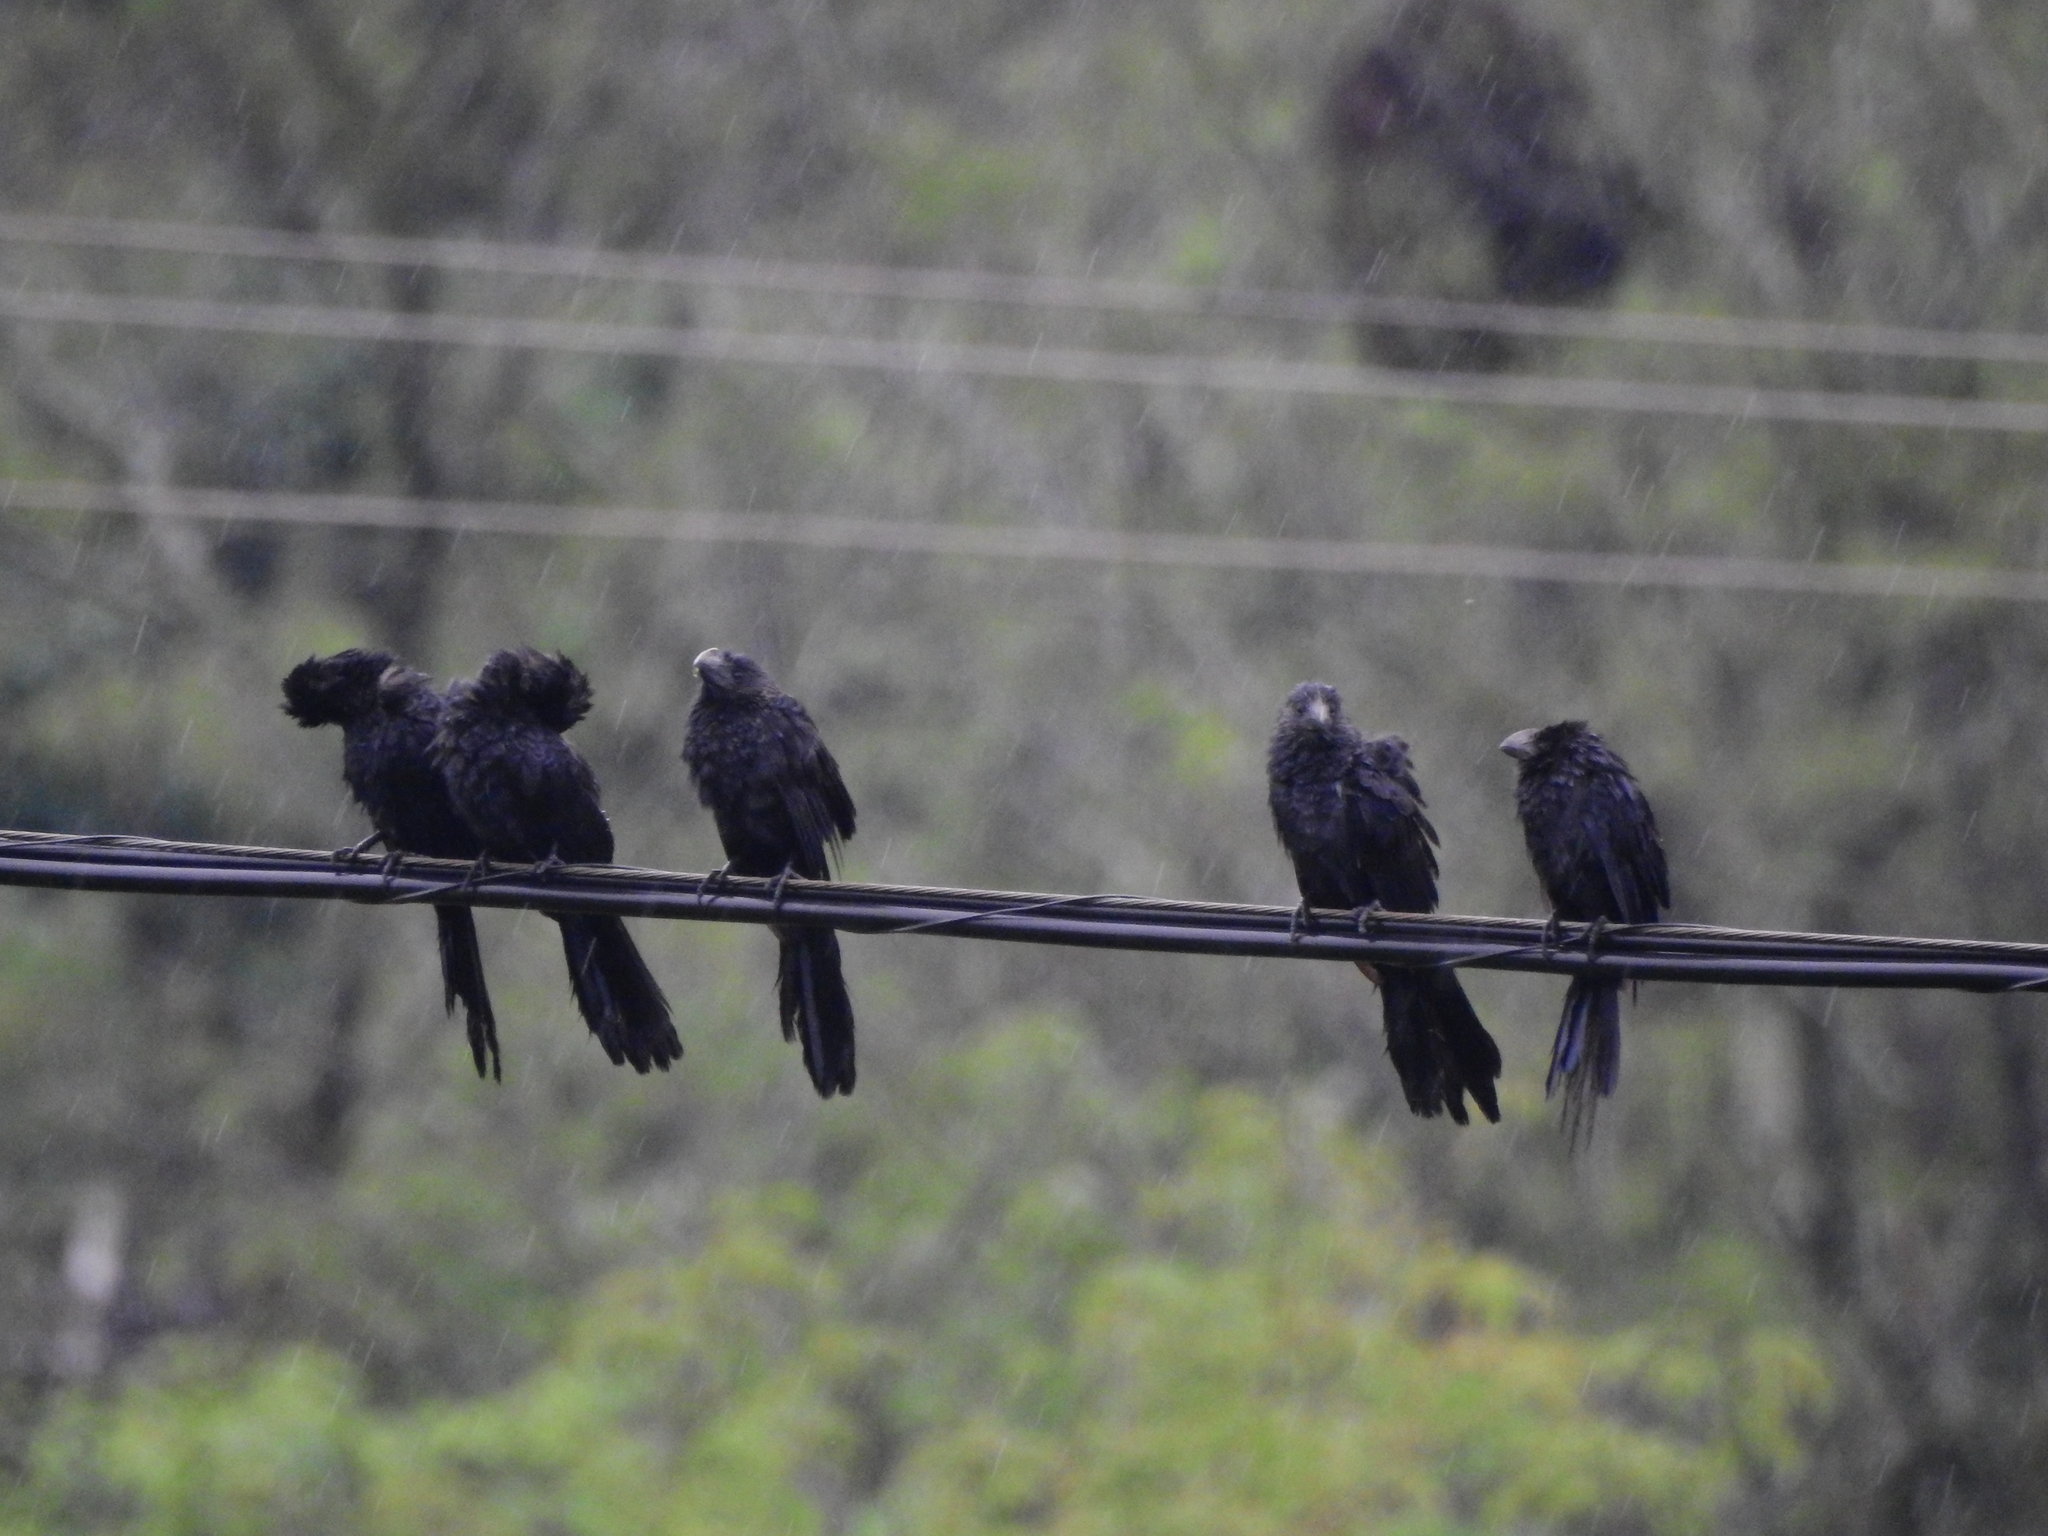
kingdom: Animalia
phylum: Chordata
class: Aves
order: Cuculiformes
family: Cuculidae
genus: Crotophaga
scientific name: Crotophaga ani
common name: Smooth-billed ani
